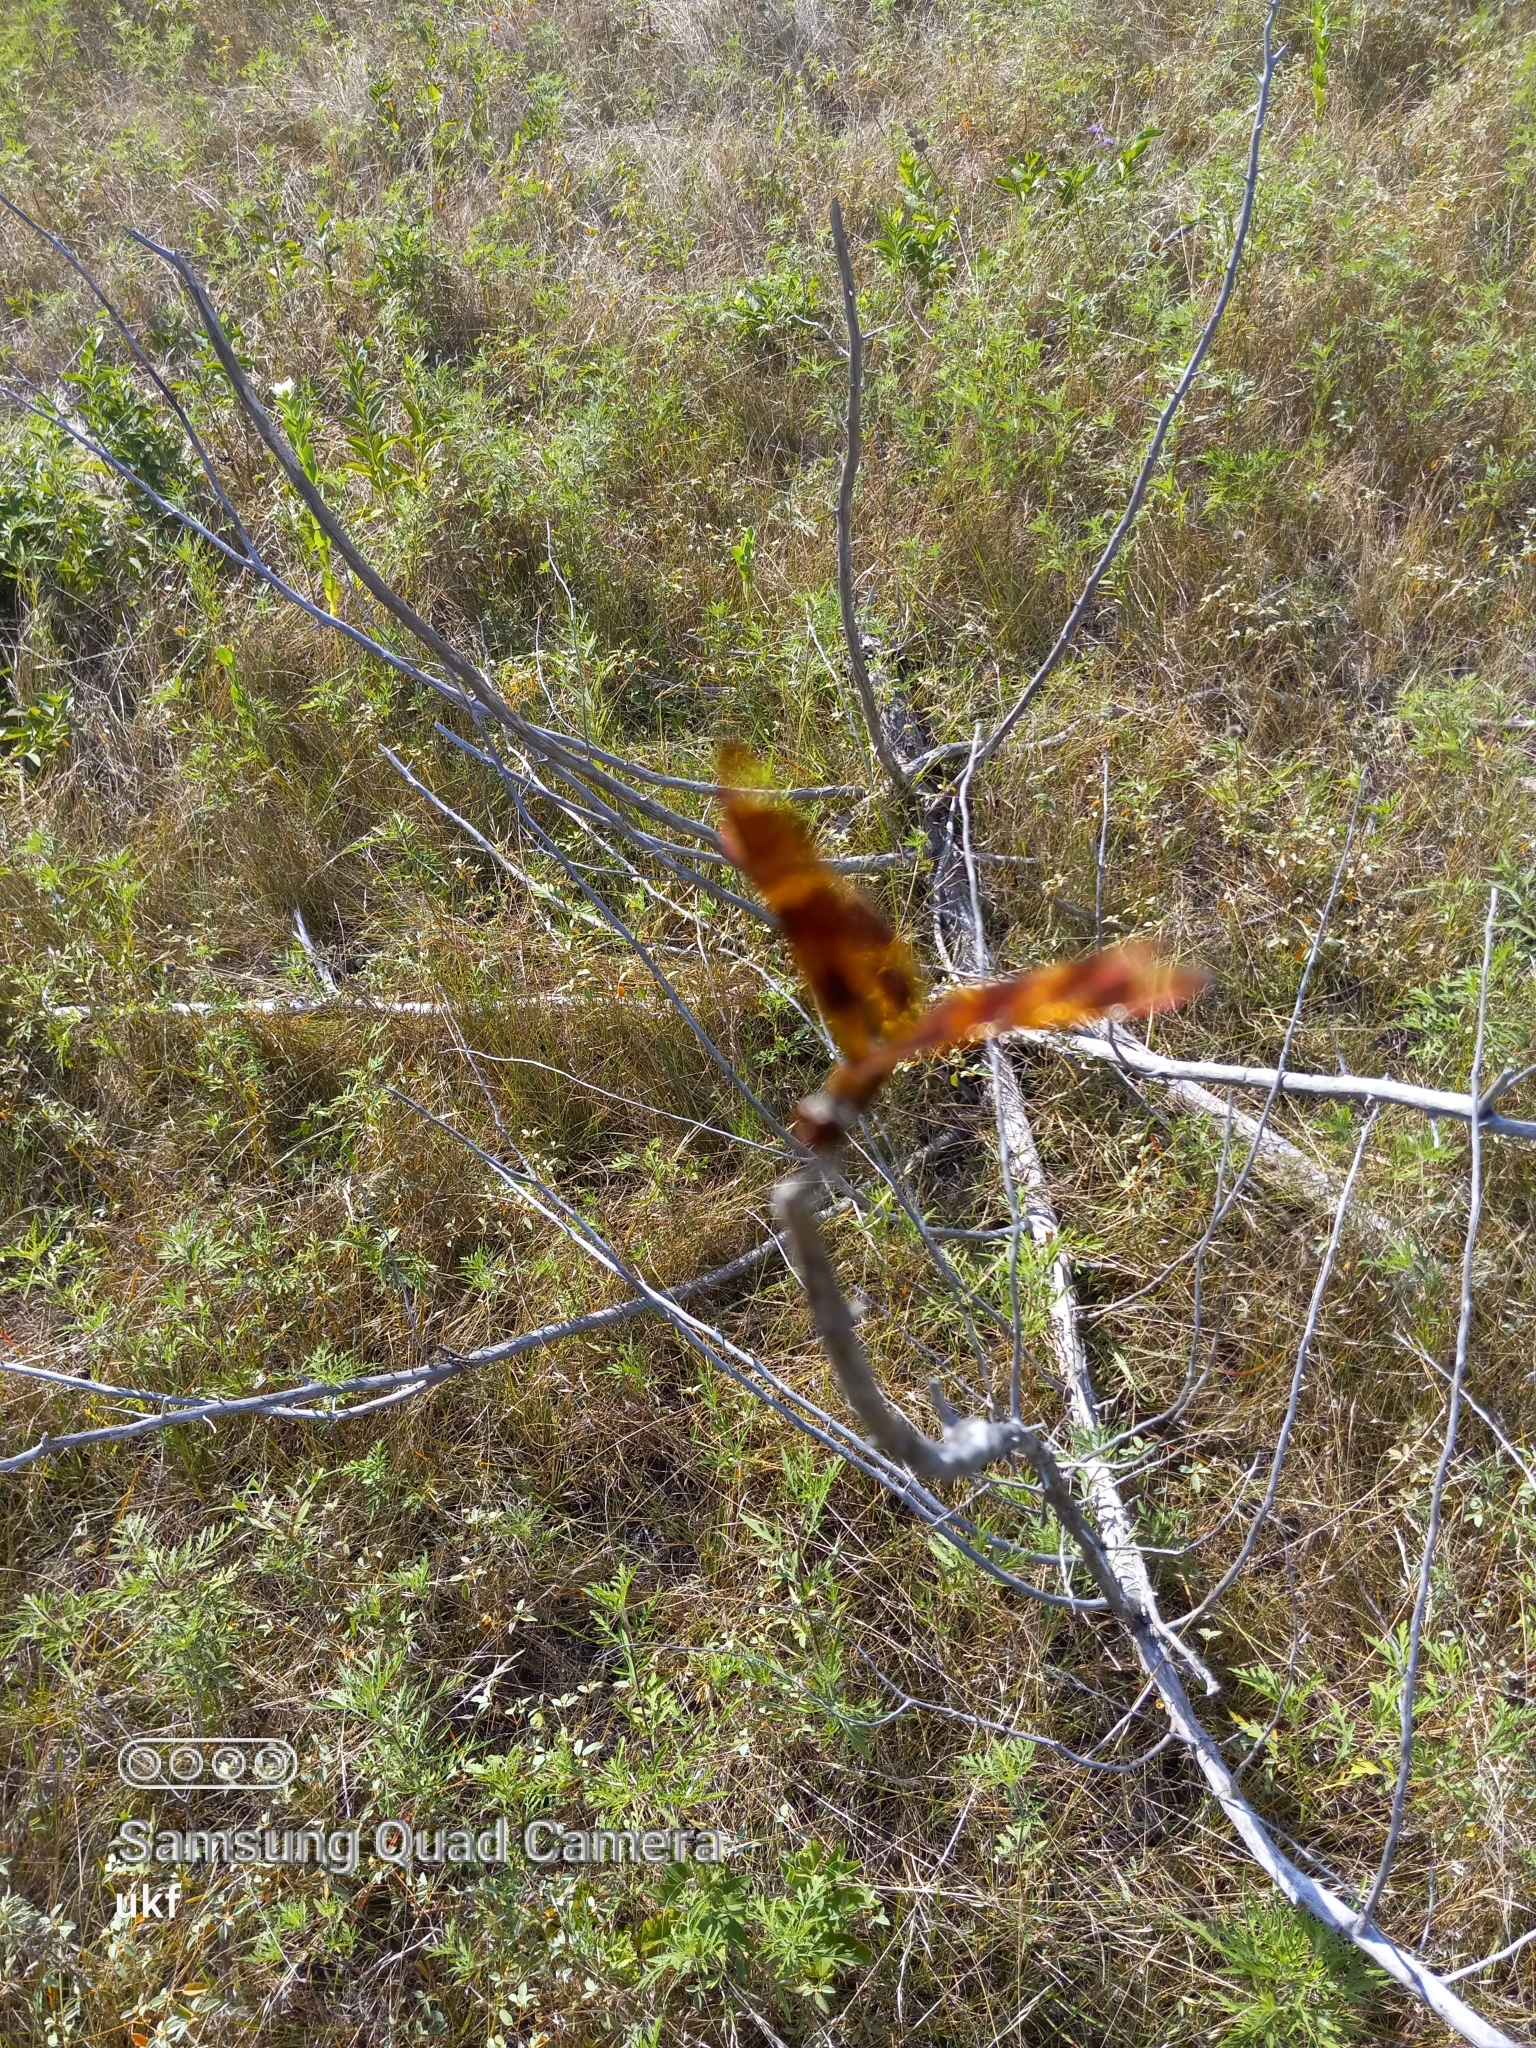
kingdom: Animalia
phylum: Arthropoda
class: Insecta
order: Odonata
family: Libellulidae
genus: Celithemis
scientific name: Celithemis eponina
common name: Halloween pennant
